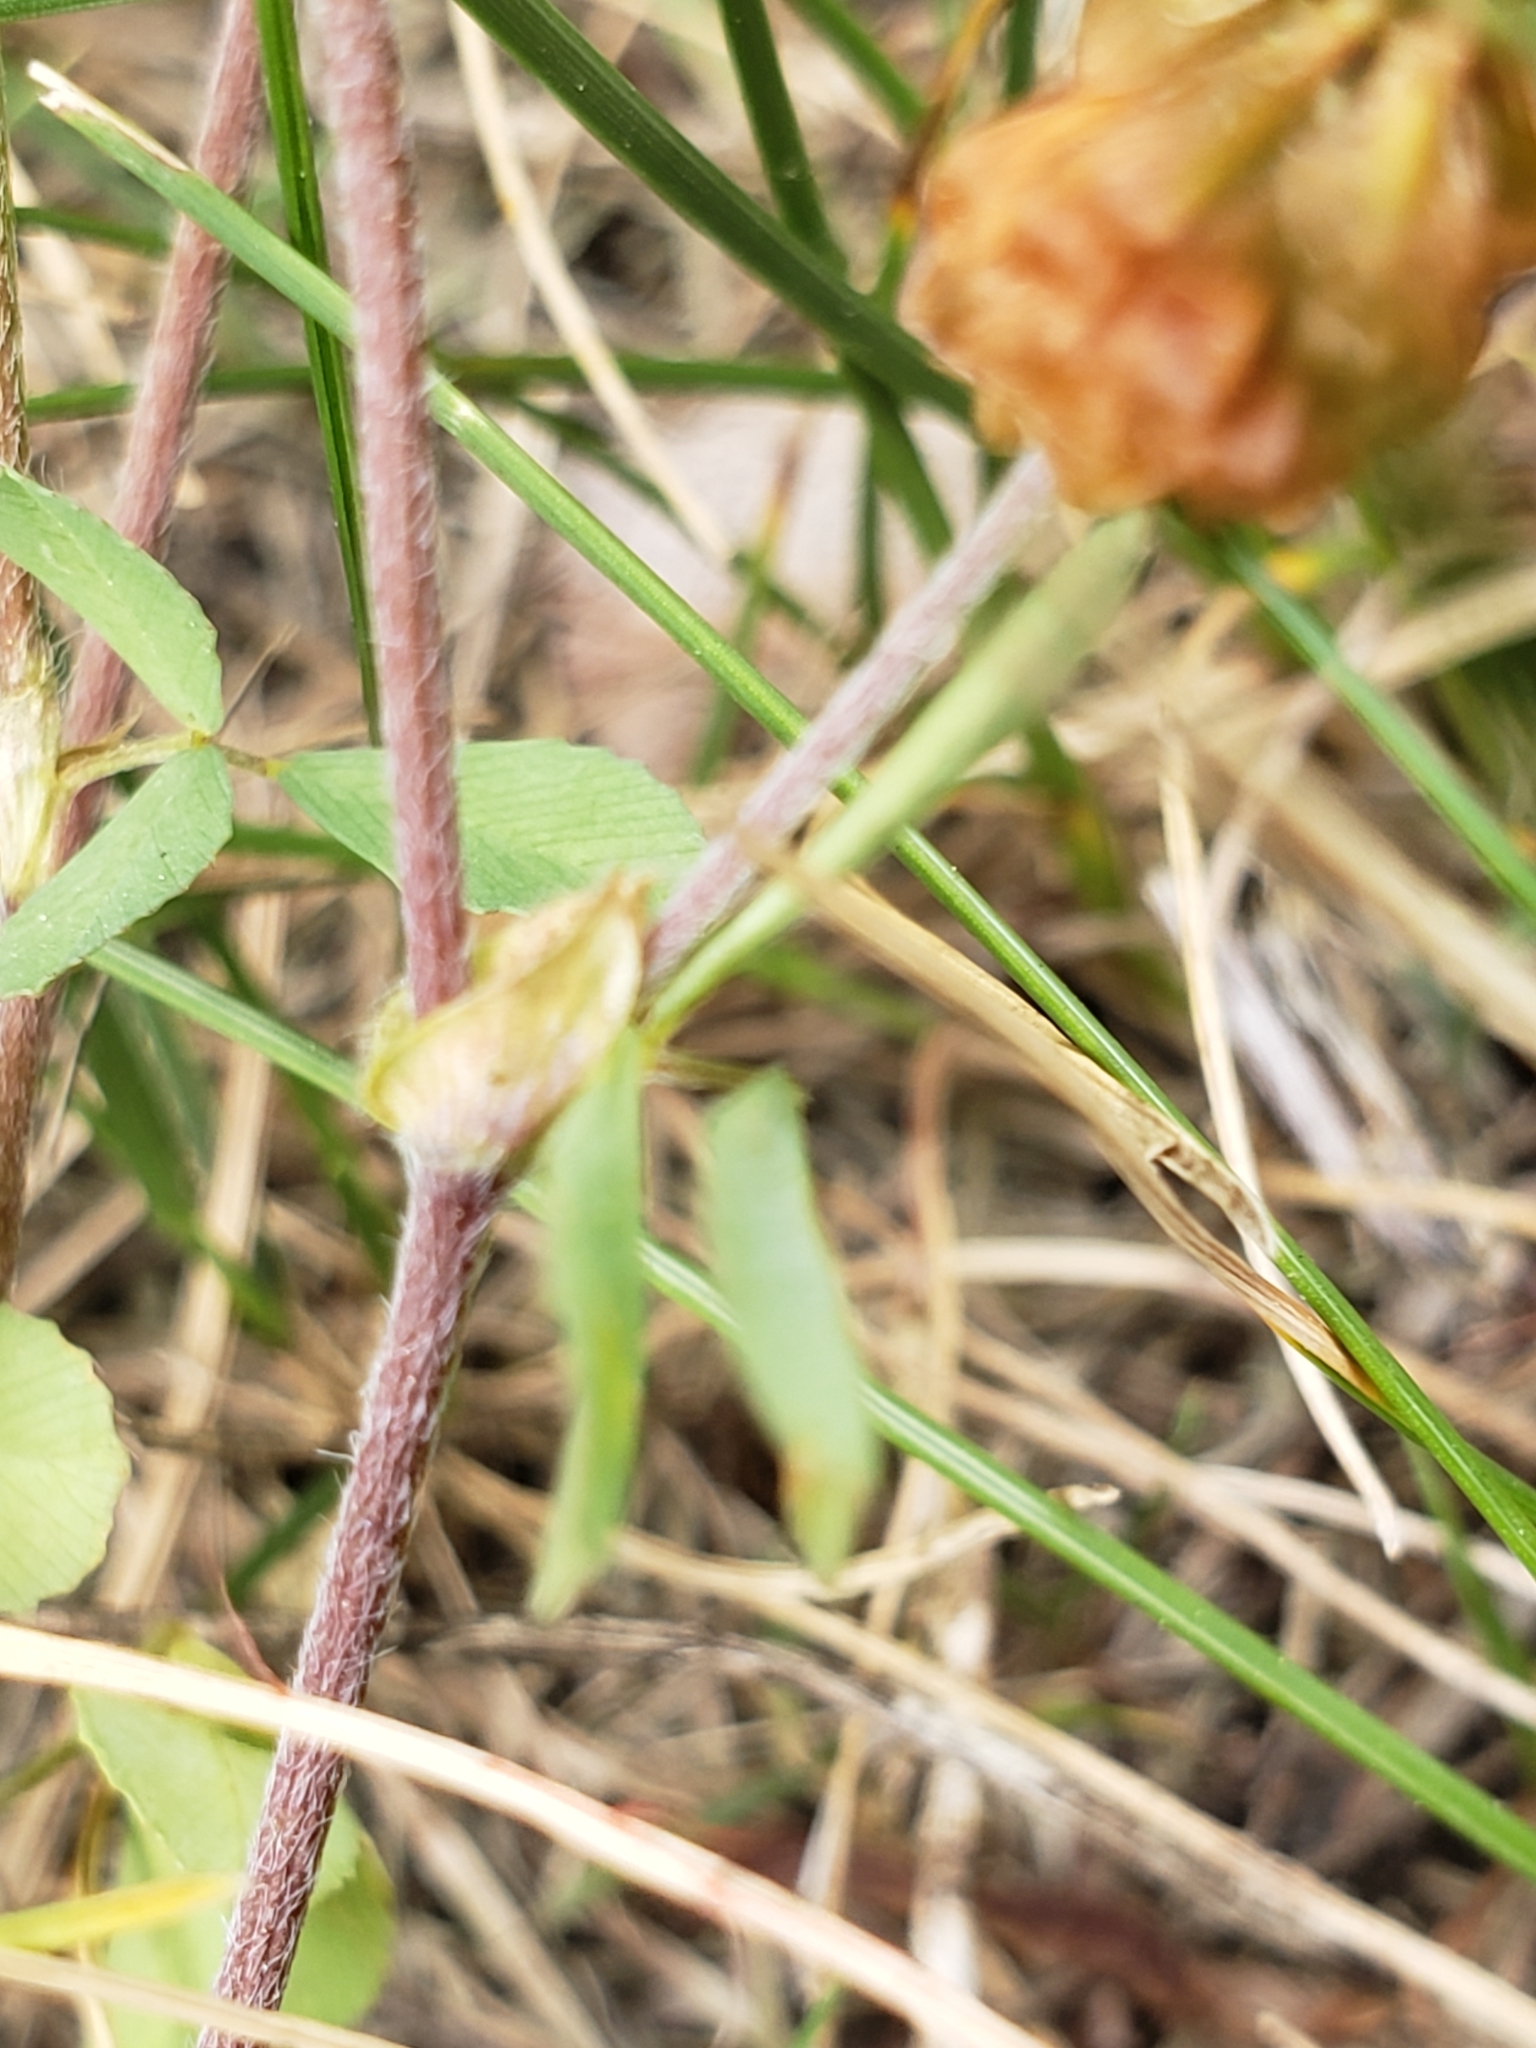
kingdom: Plantae
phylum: Tracheophyta
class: Magnoliopsida
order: Fabales
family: Fabaceae
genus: Trifolium
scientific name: Trifolium campestre
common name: Field clover
